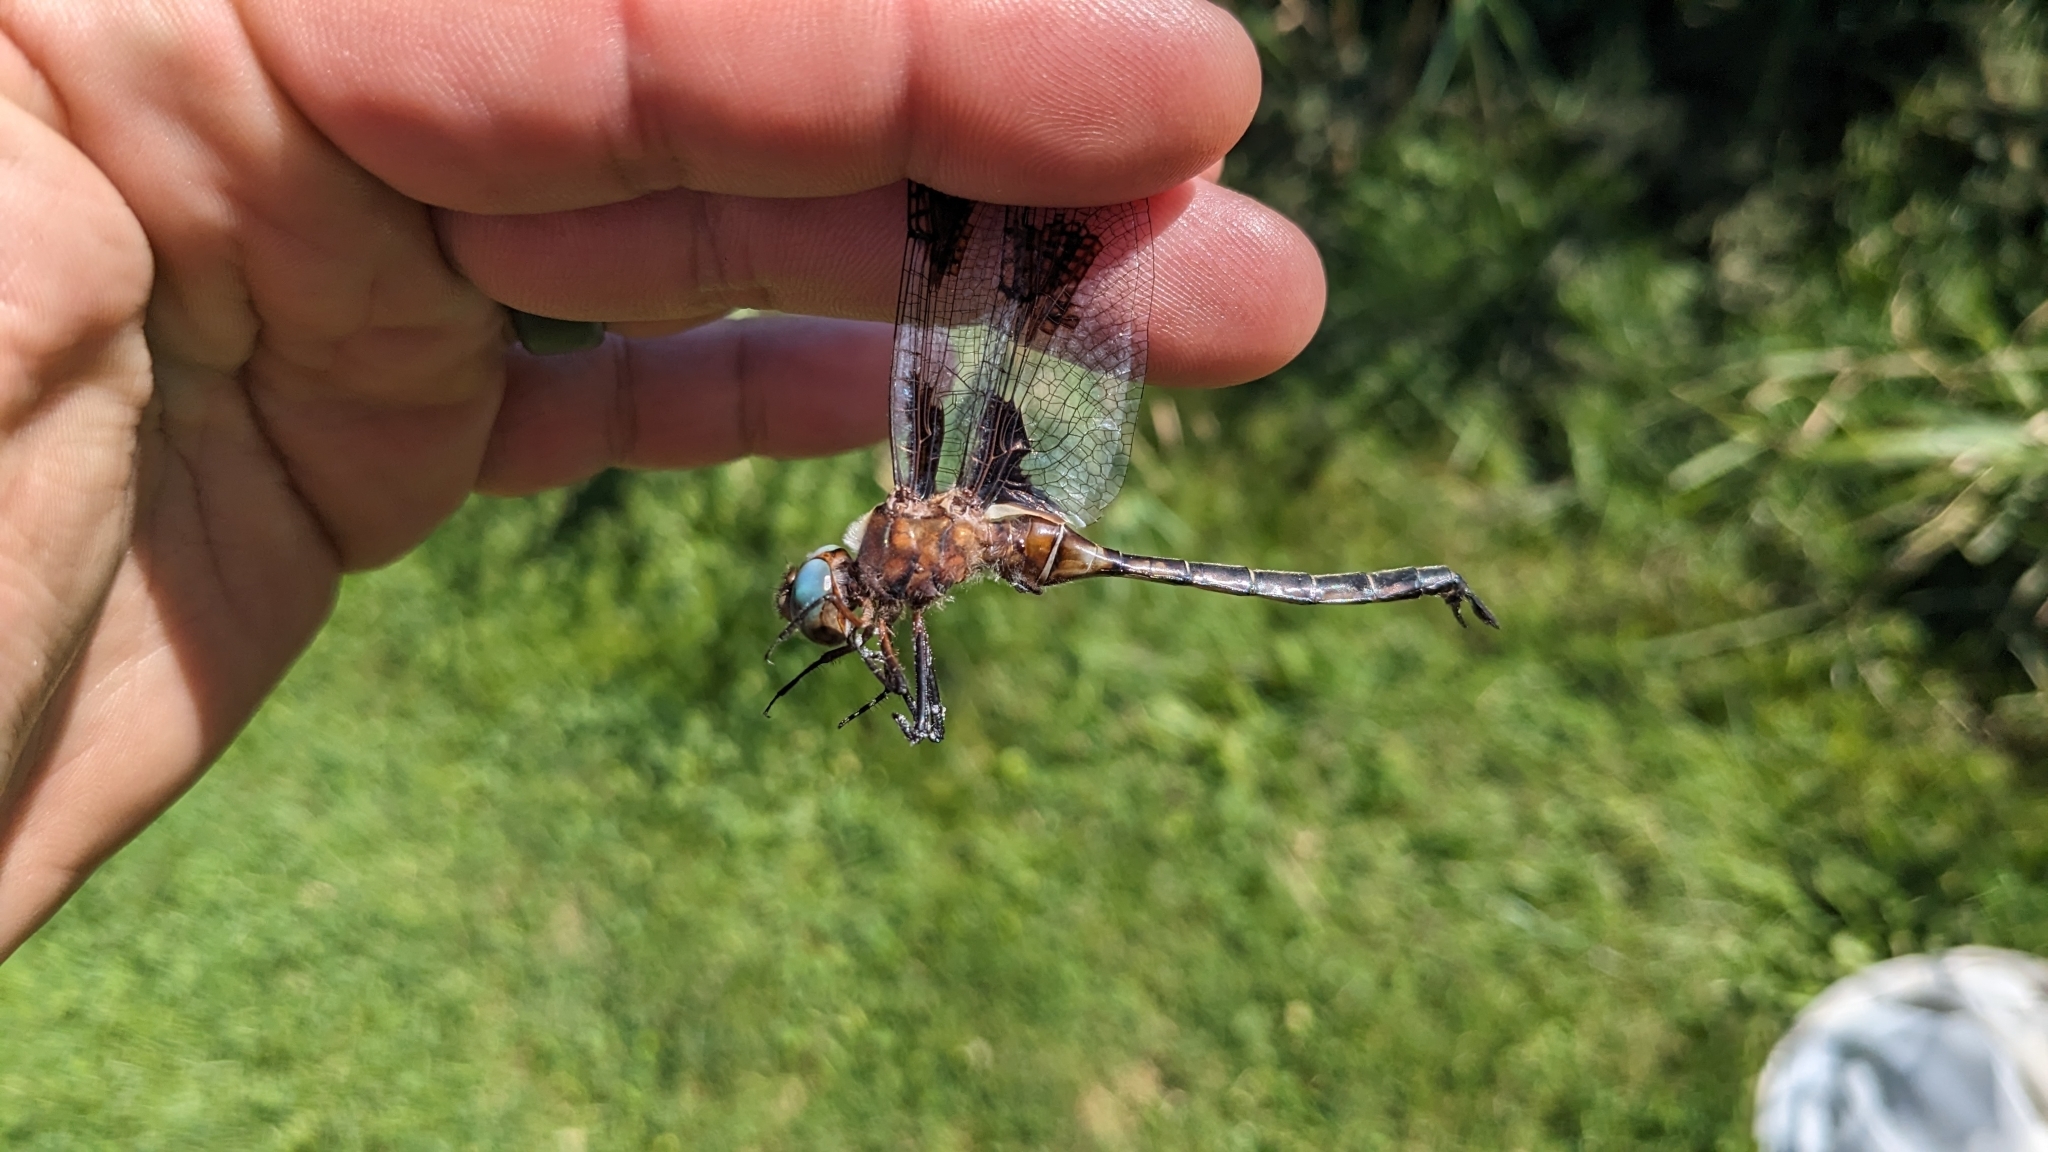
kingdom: Animalia
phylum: Arthropoda
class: Insecta
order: Odonata
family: Corduliidae
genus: Epitheca
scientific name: Epitheca princeps
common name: Prince baskettail
